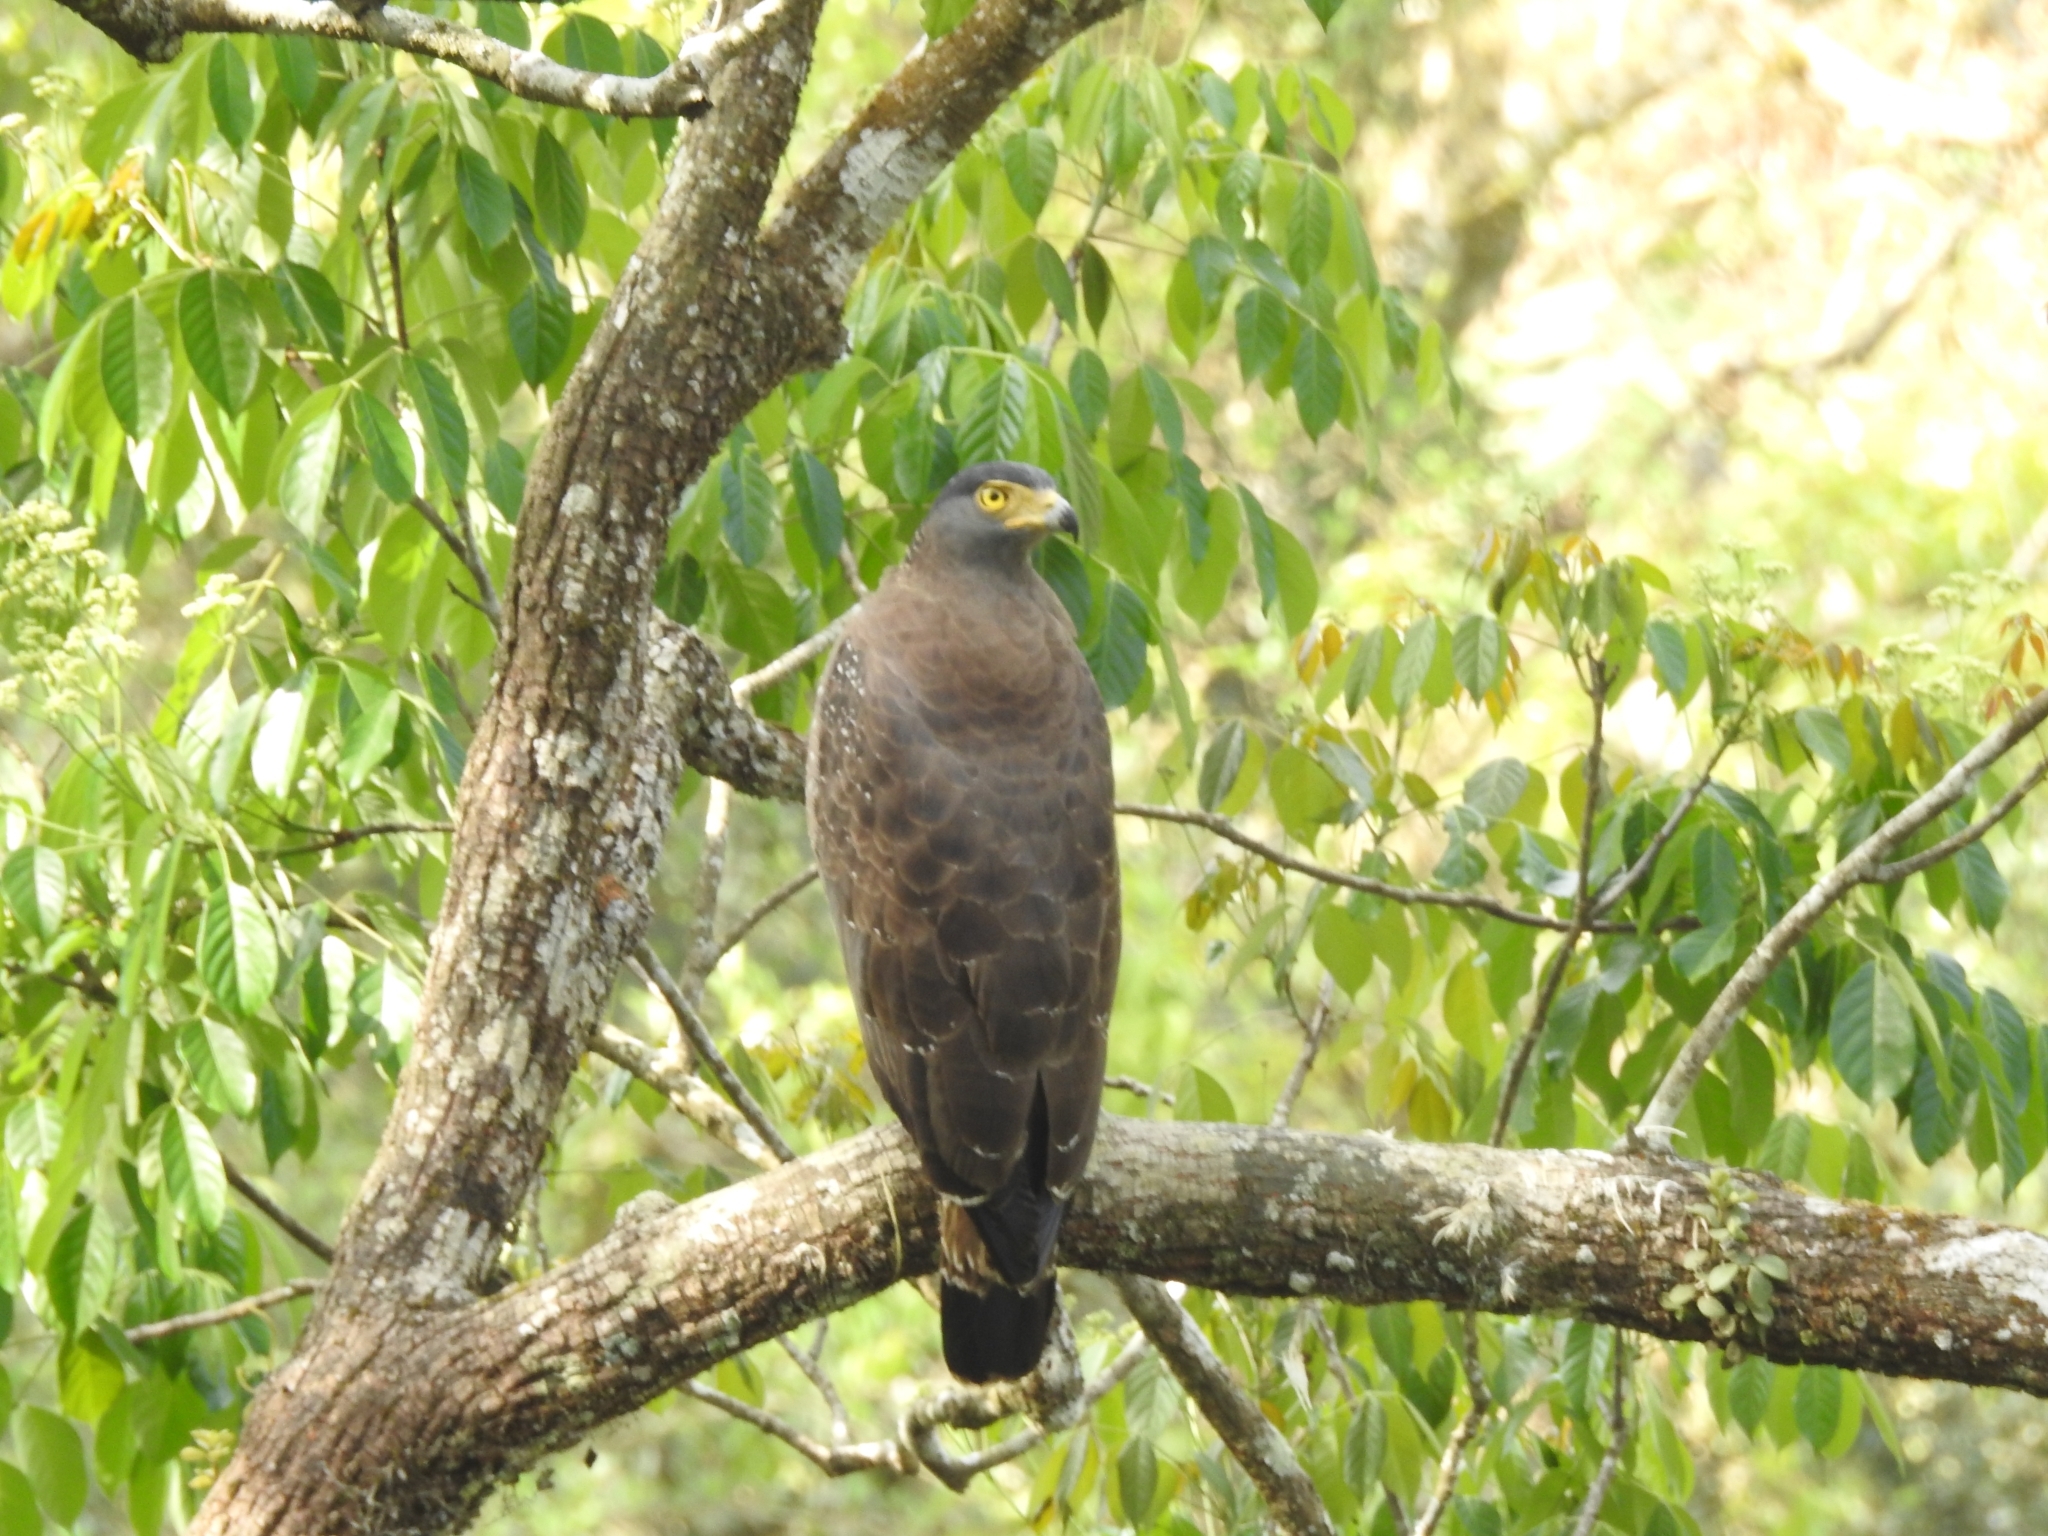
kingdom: Animalia
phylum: Chordata
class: Aves
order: Accipitriformes
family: Accipitridae
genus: Spilornis
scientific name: Spilornis cheela
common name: Crested serpent eagle
